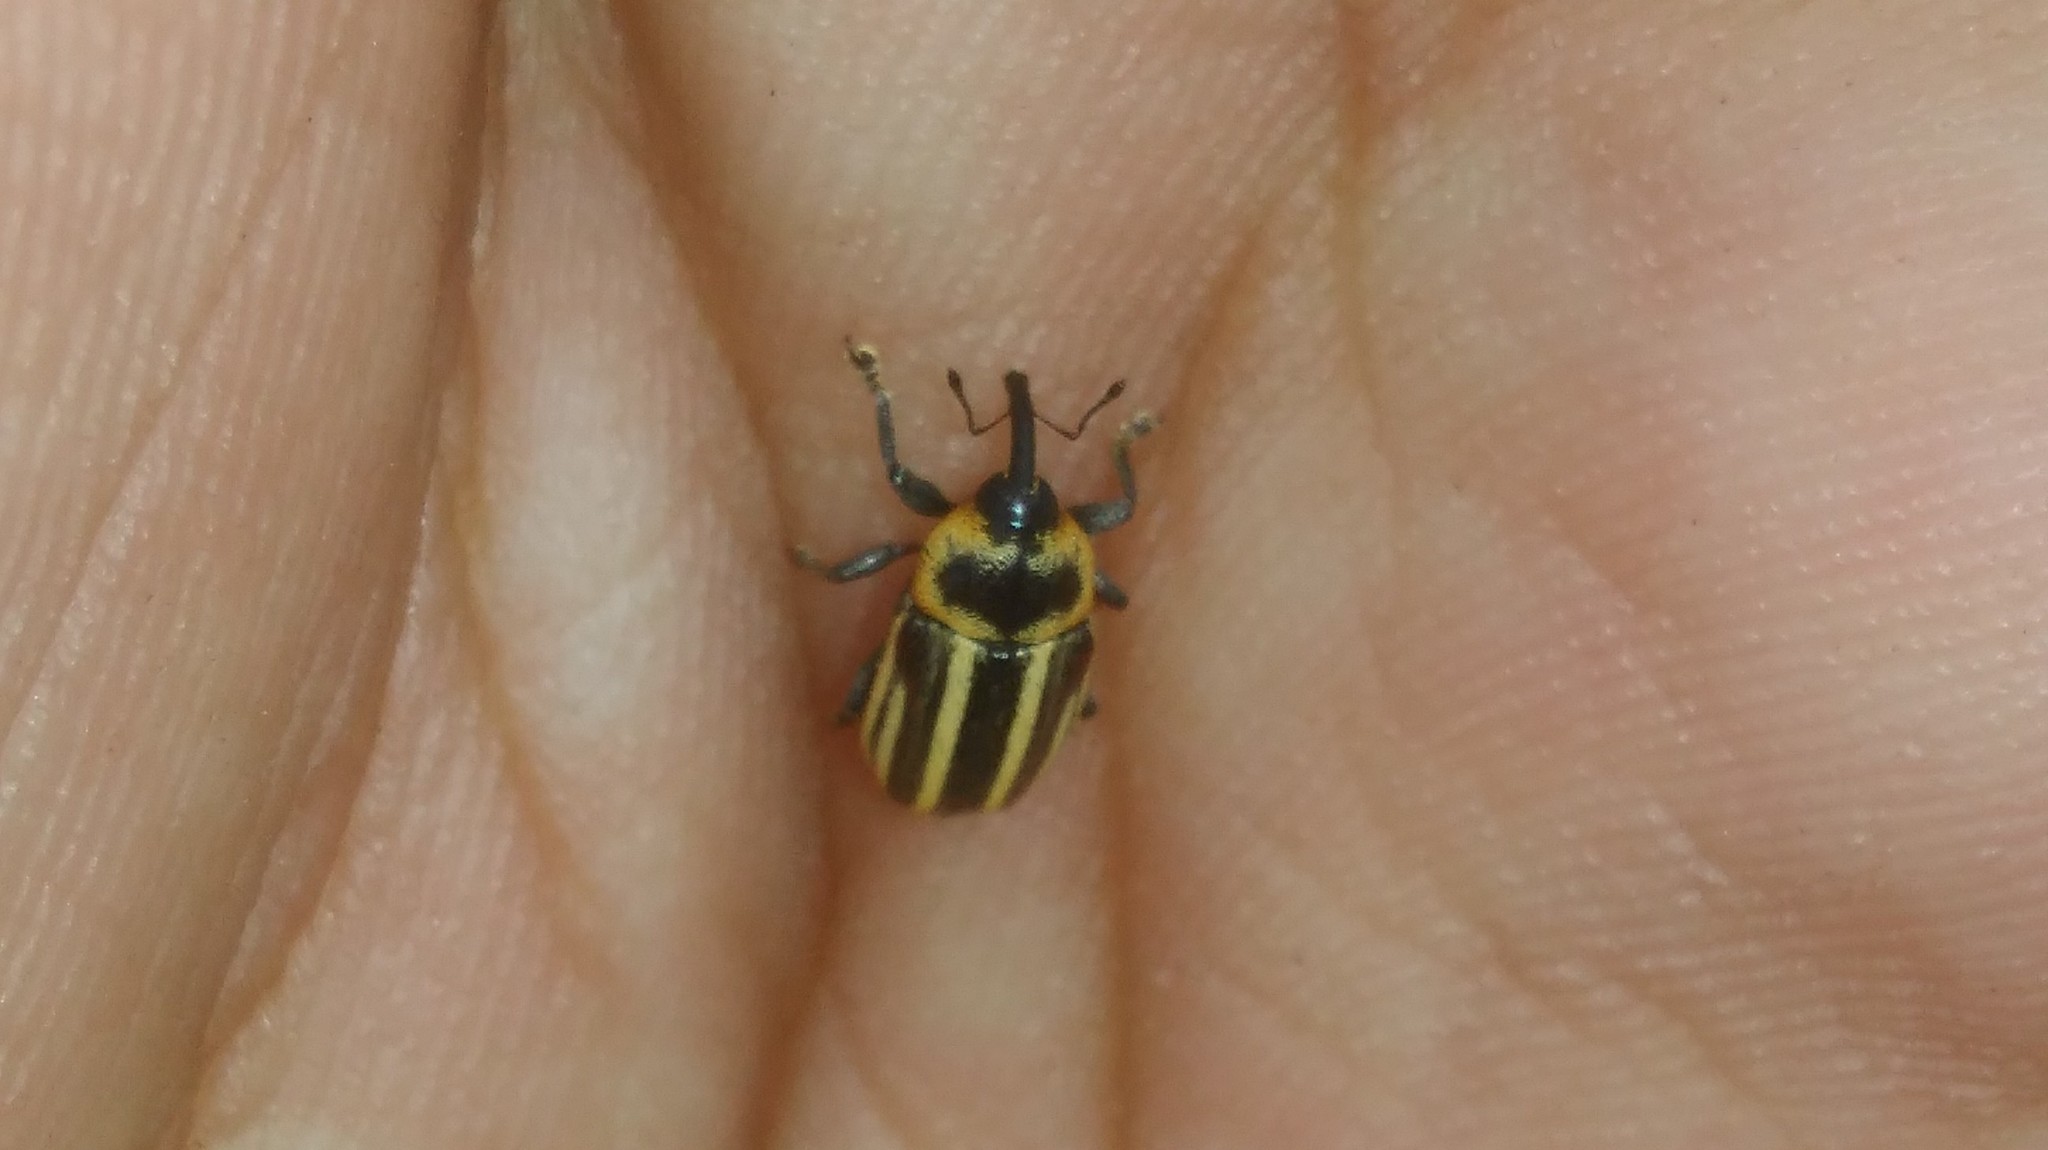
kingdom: Animalia
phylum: Arthropoda
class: Insecta
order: Coleoptera
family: Curculionidae
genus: Demoda
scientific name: Demoda vittata
